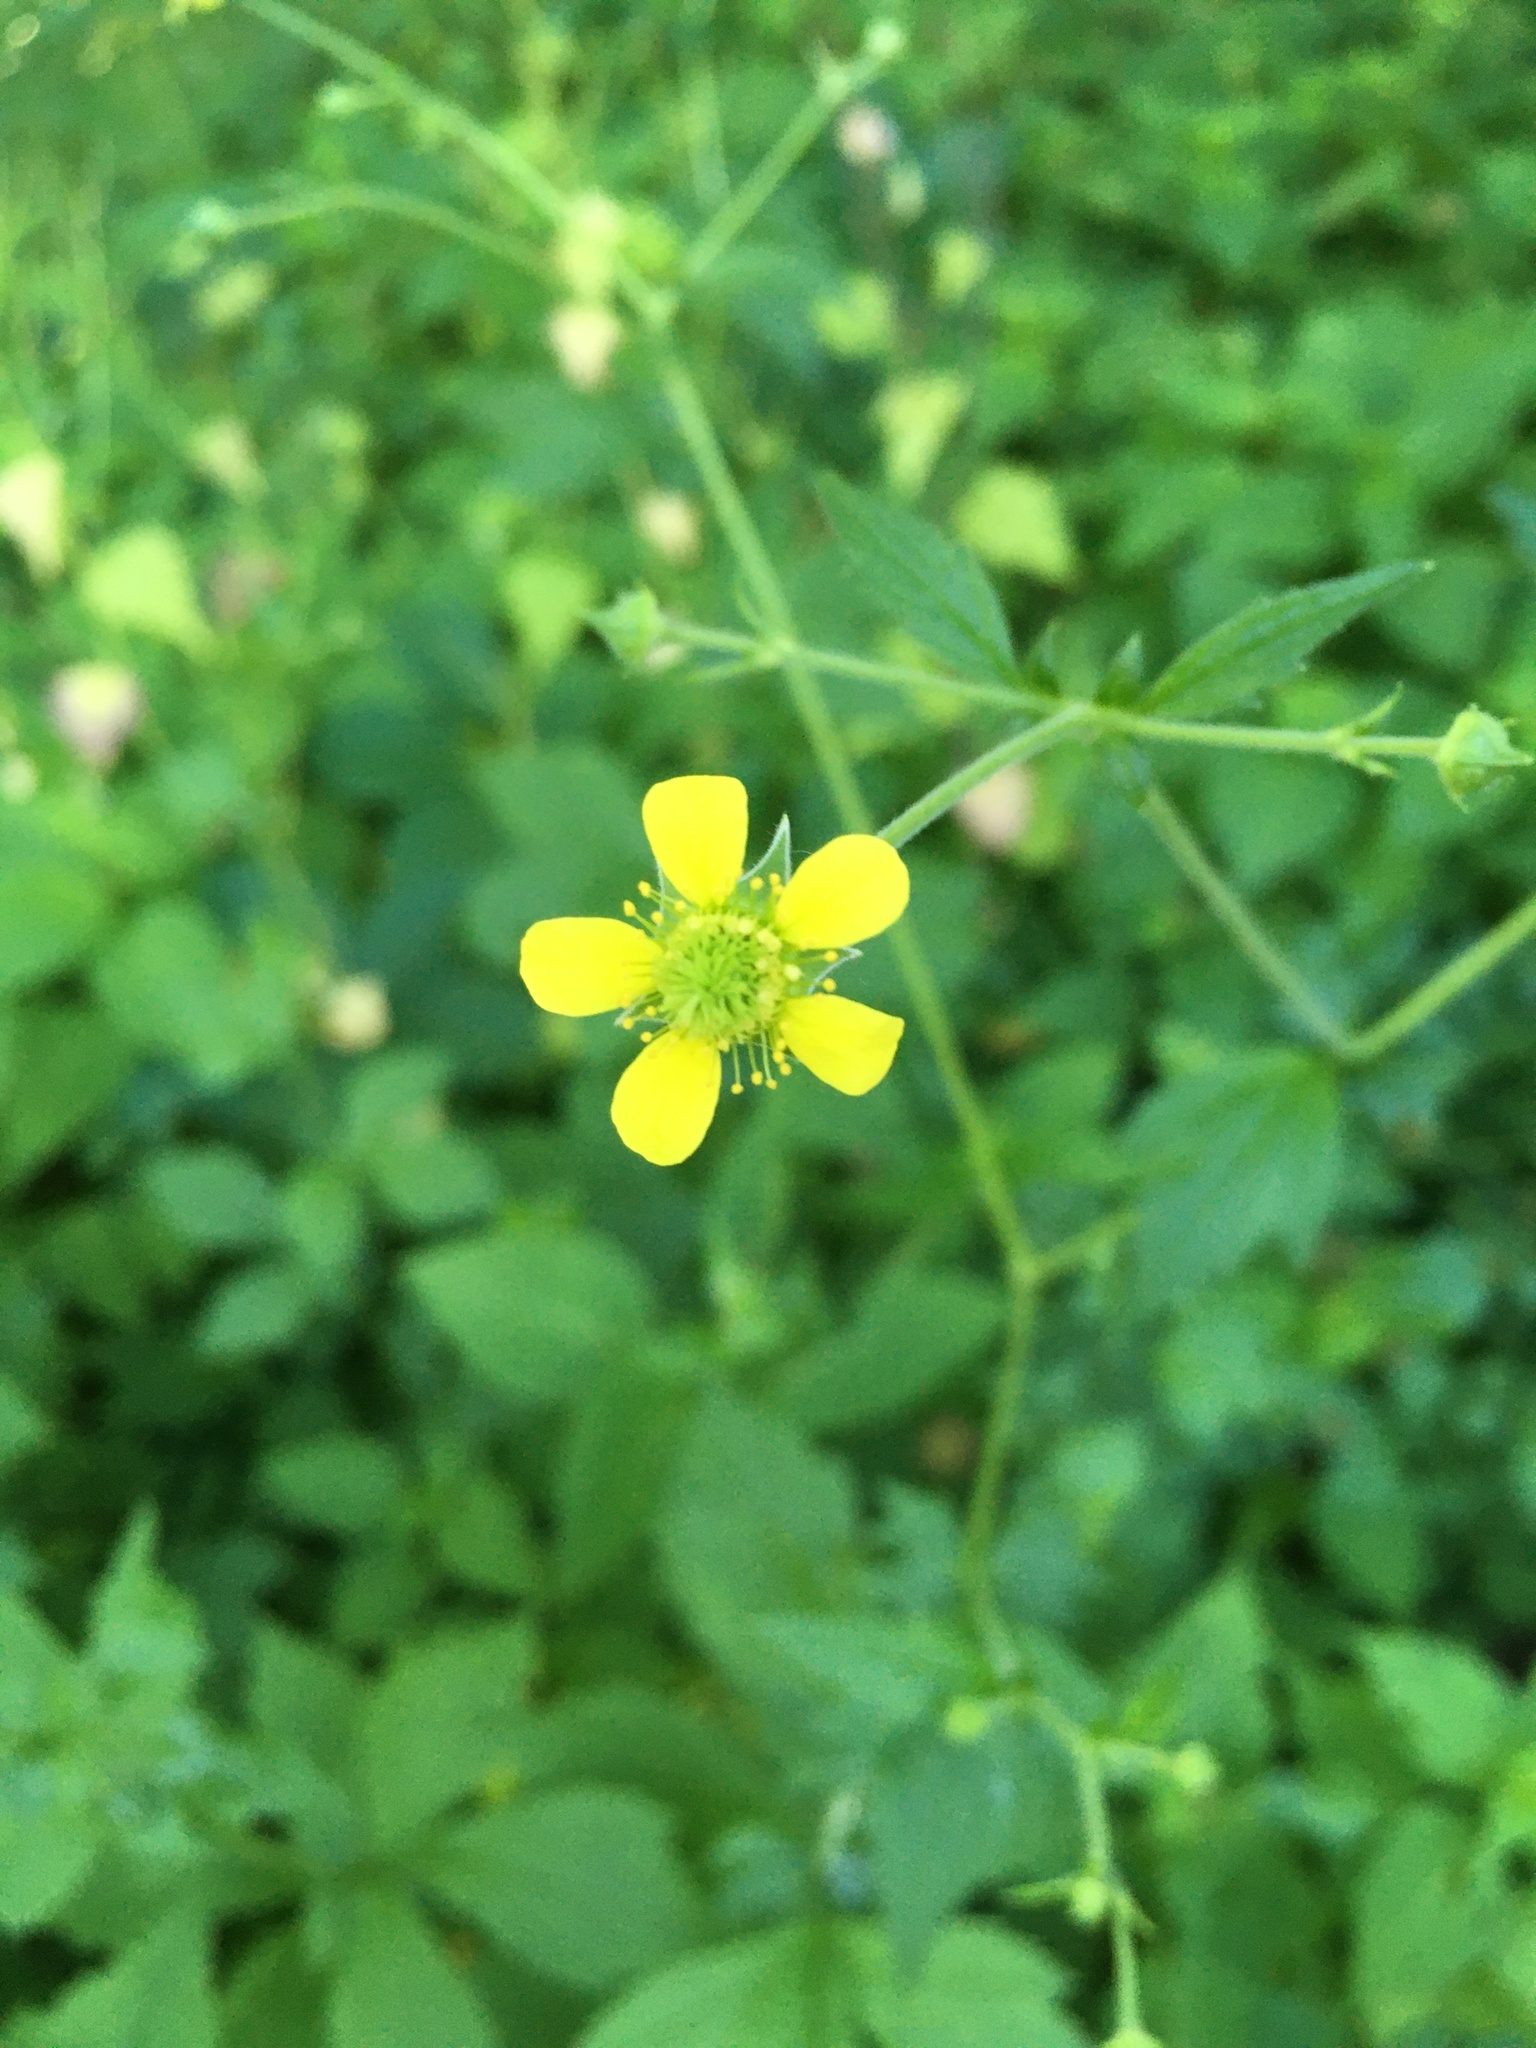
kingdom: Plantae
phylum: Tracheophyta
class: Magnoliopsida
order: Rosales
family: Rosaceae
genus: Geum
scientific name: Geum catlingii
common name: Catling's avens
